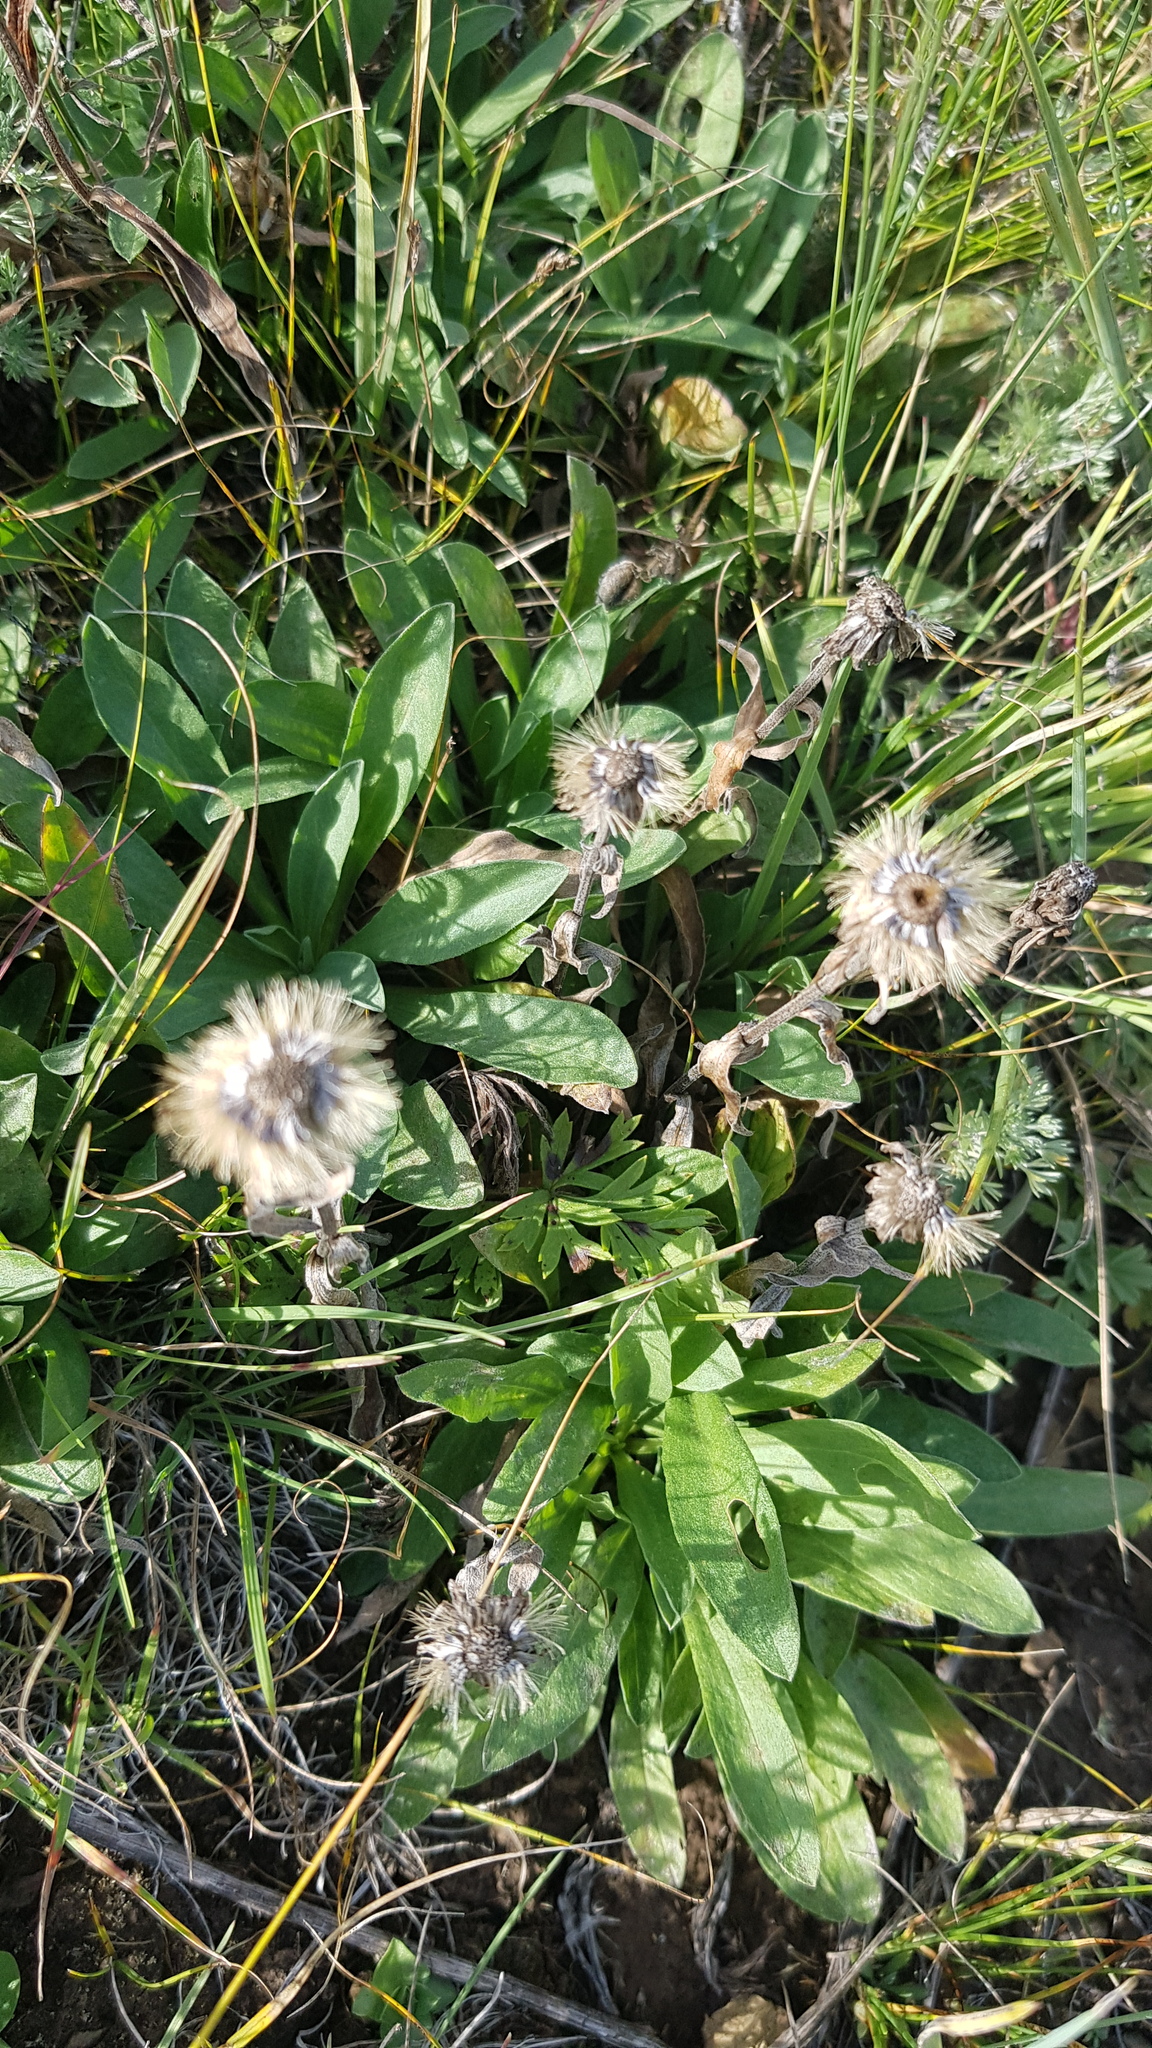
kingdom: Plantae
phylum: Tracheophyta
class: Magnoliopsida
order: Asterales
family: Asteraceae
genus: Saussurea
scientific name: Saussurea amara
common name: Alberta sawwort
